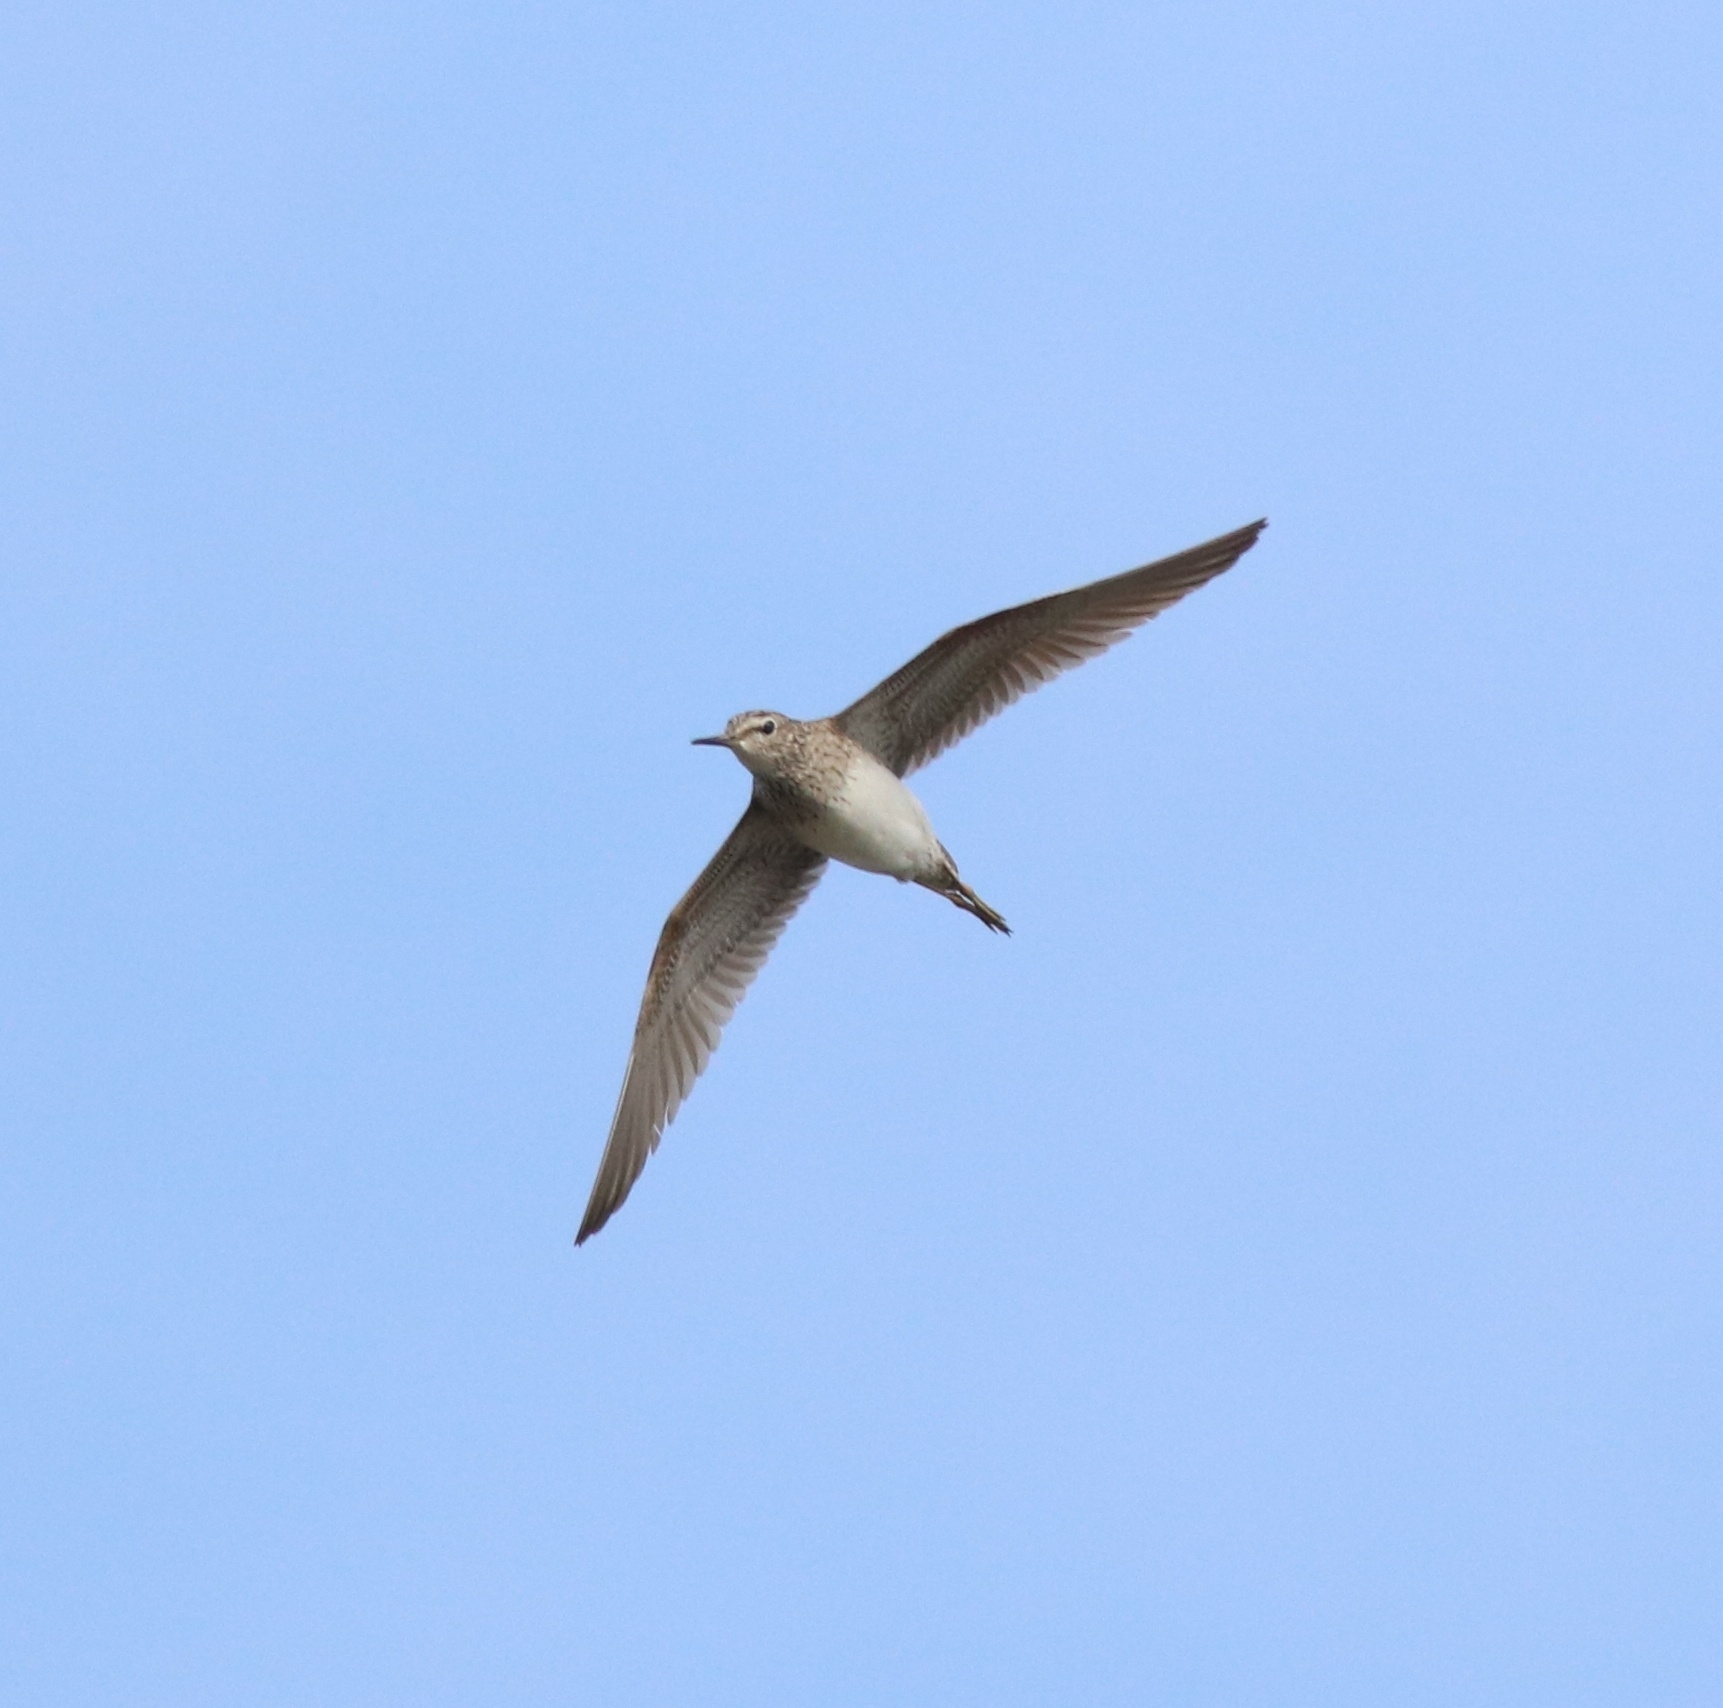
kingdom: Animalia
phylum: Chordata
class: Aves
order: Charadriiformes
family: Scolopacidae
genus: Tringa
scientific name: Tringa glareola
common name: Wood sandpiper
